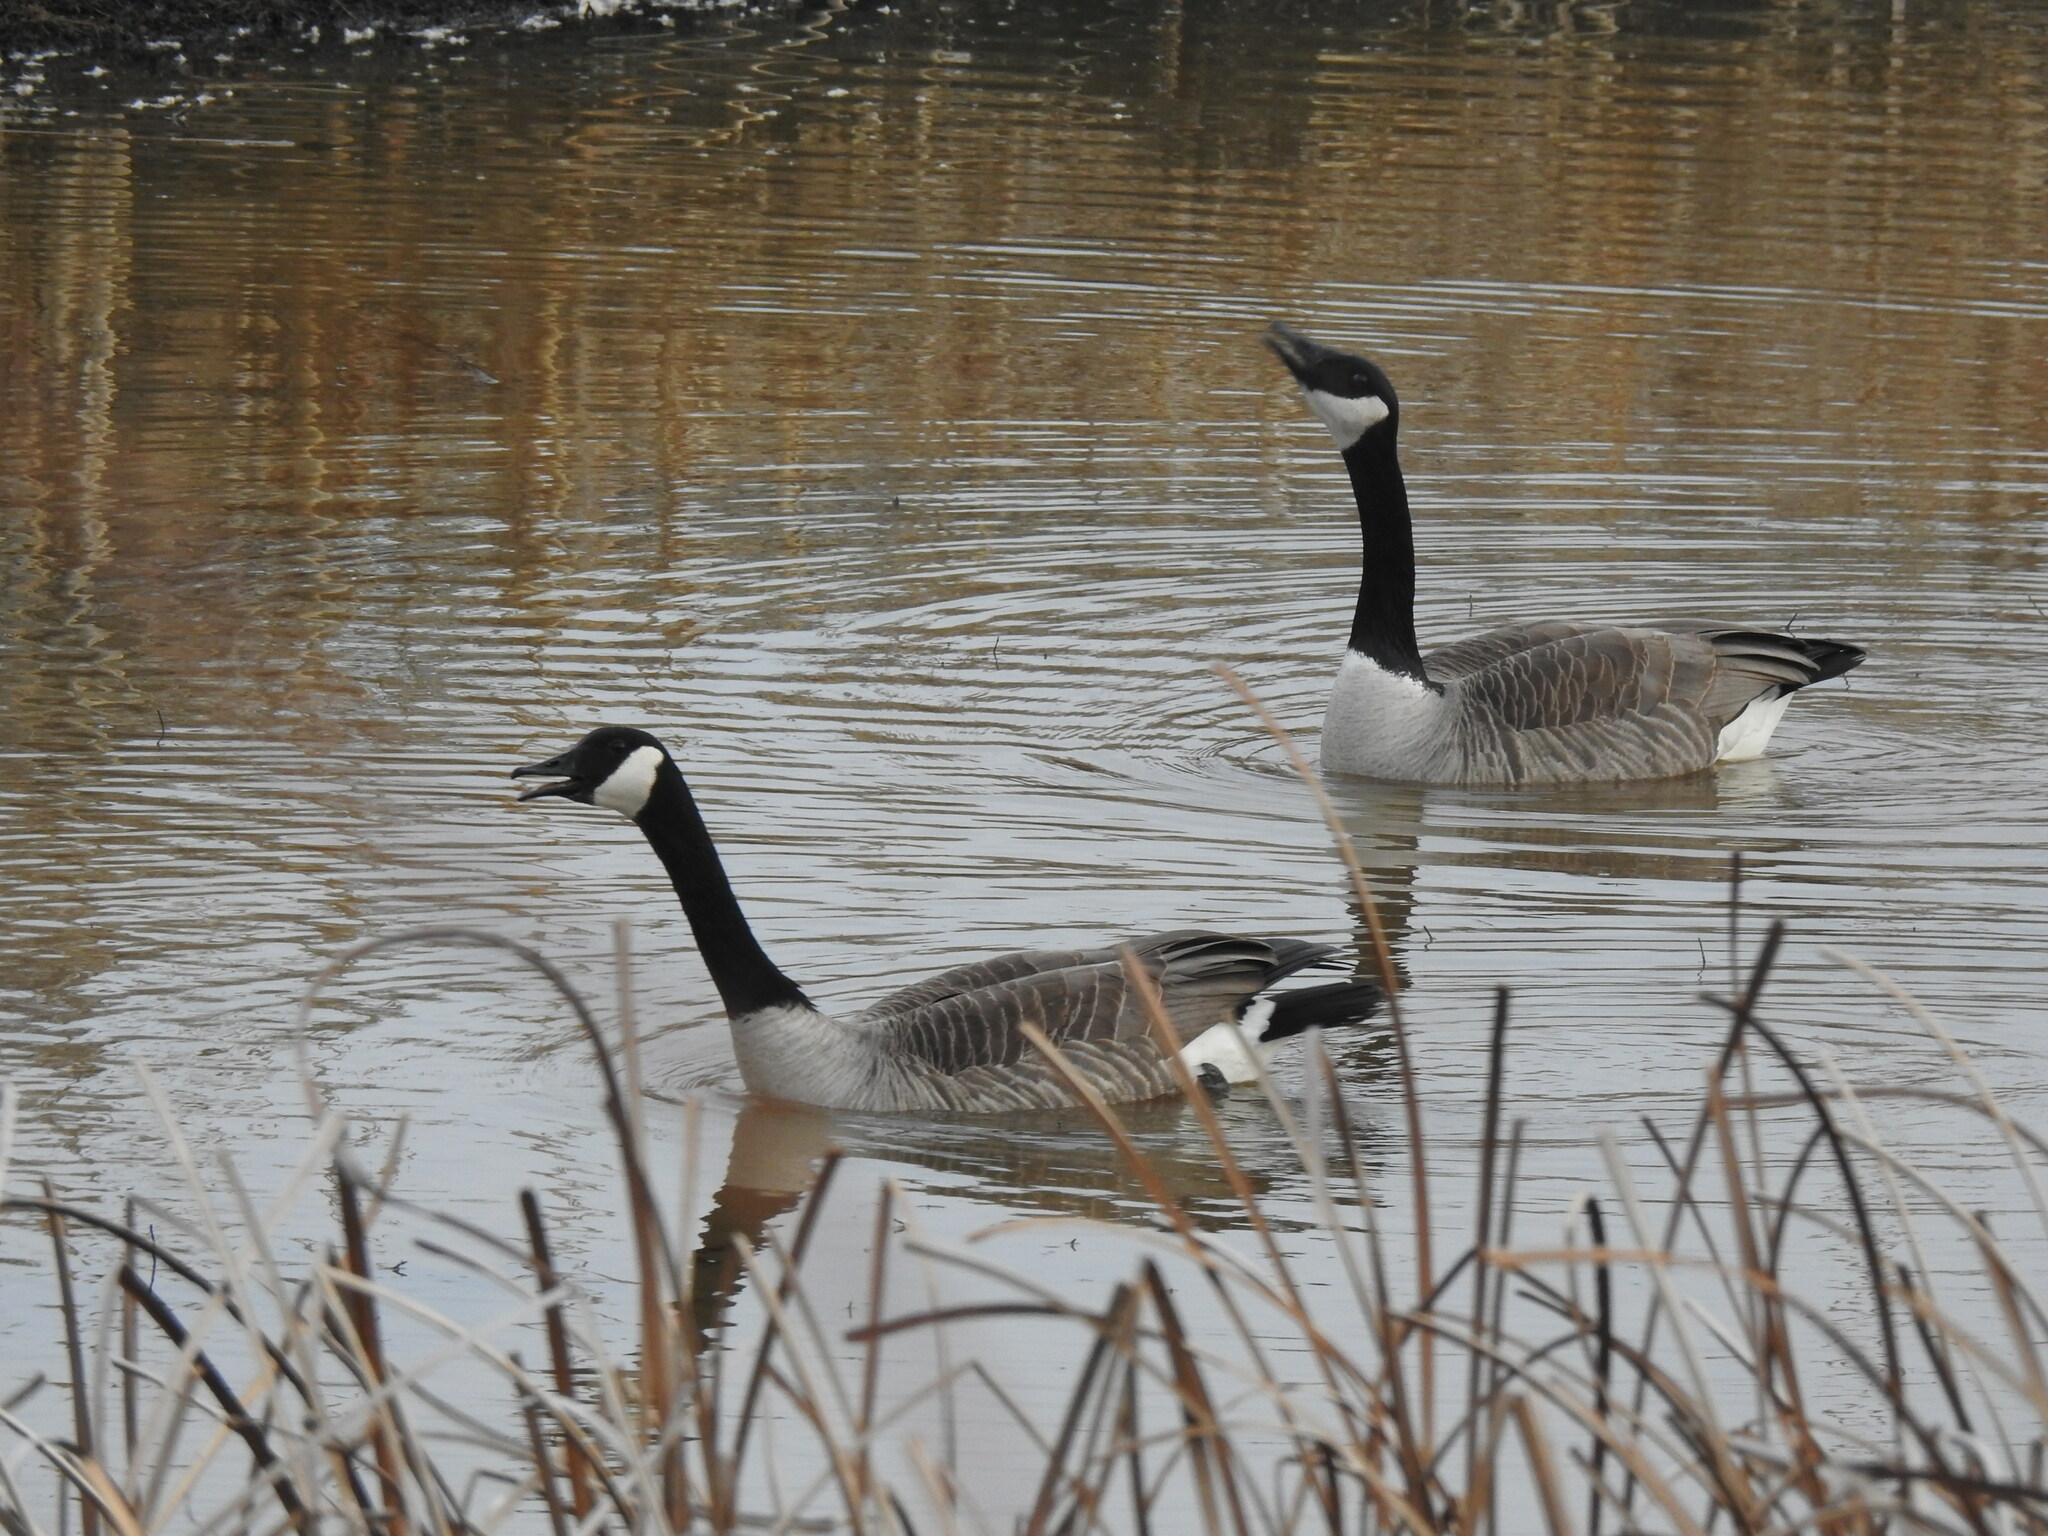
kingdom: Animalia
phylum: Chordata
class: Aves
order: Anseriformes
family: Anatidae
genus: Branta
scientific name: Branta canadensis
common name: Canada goose
